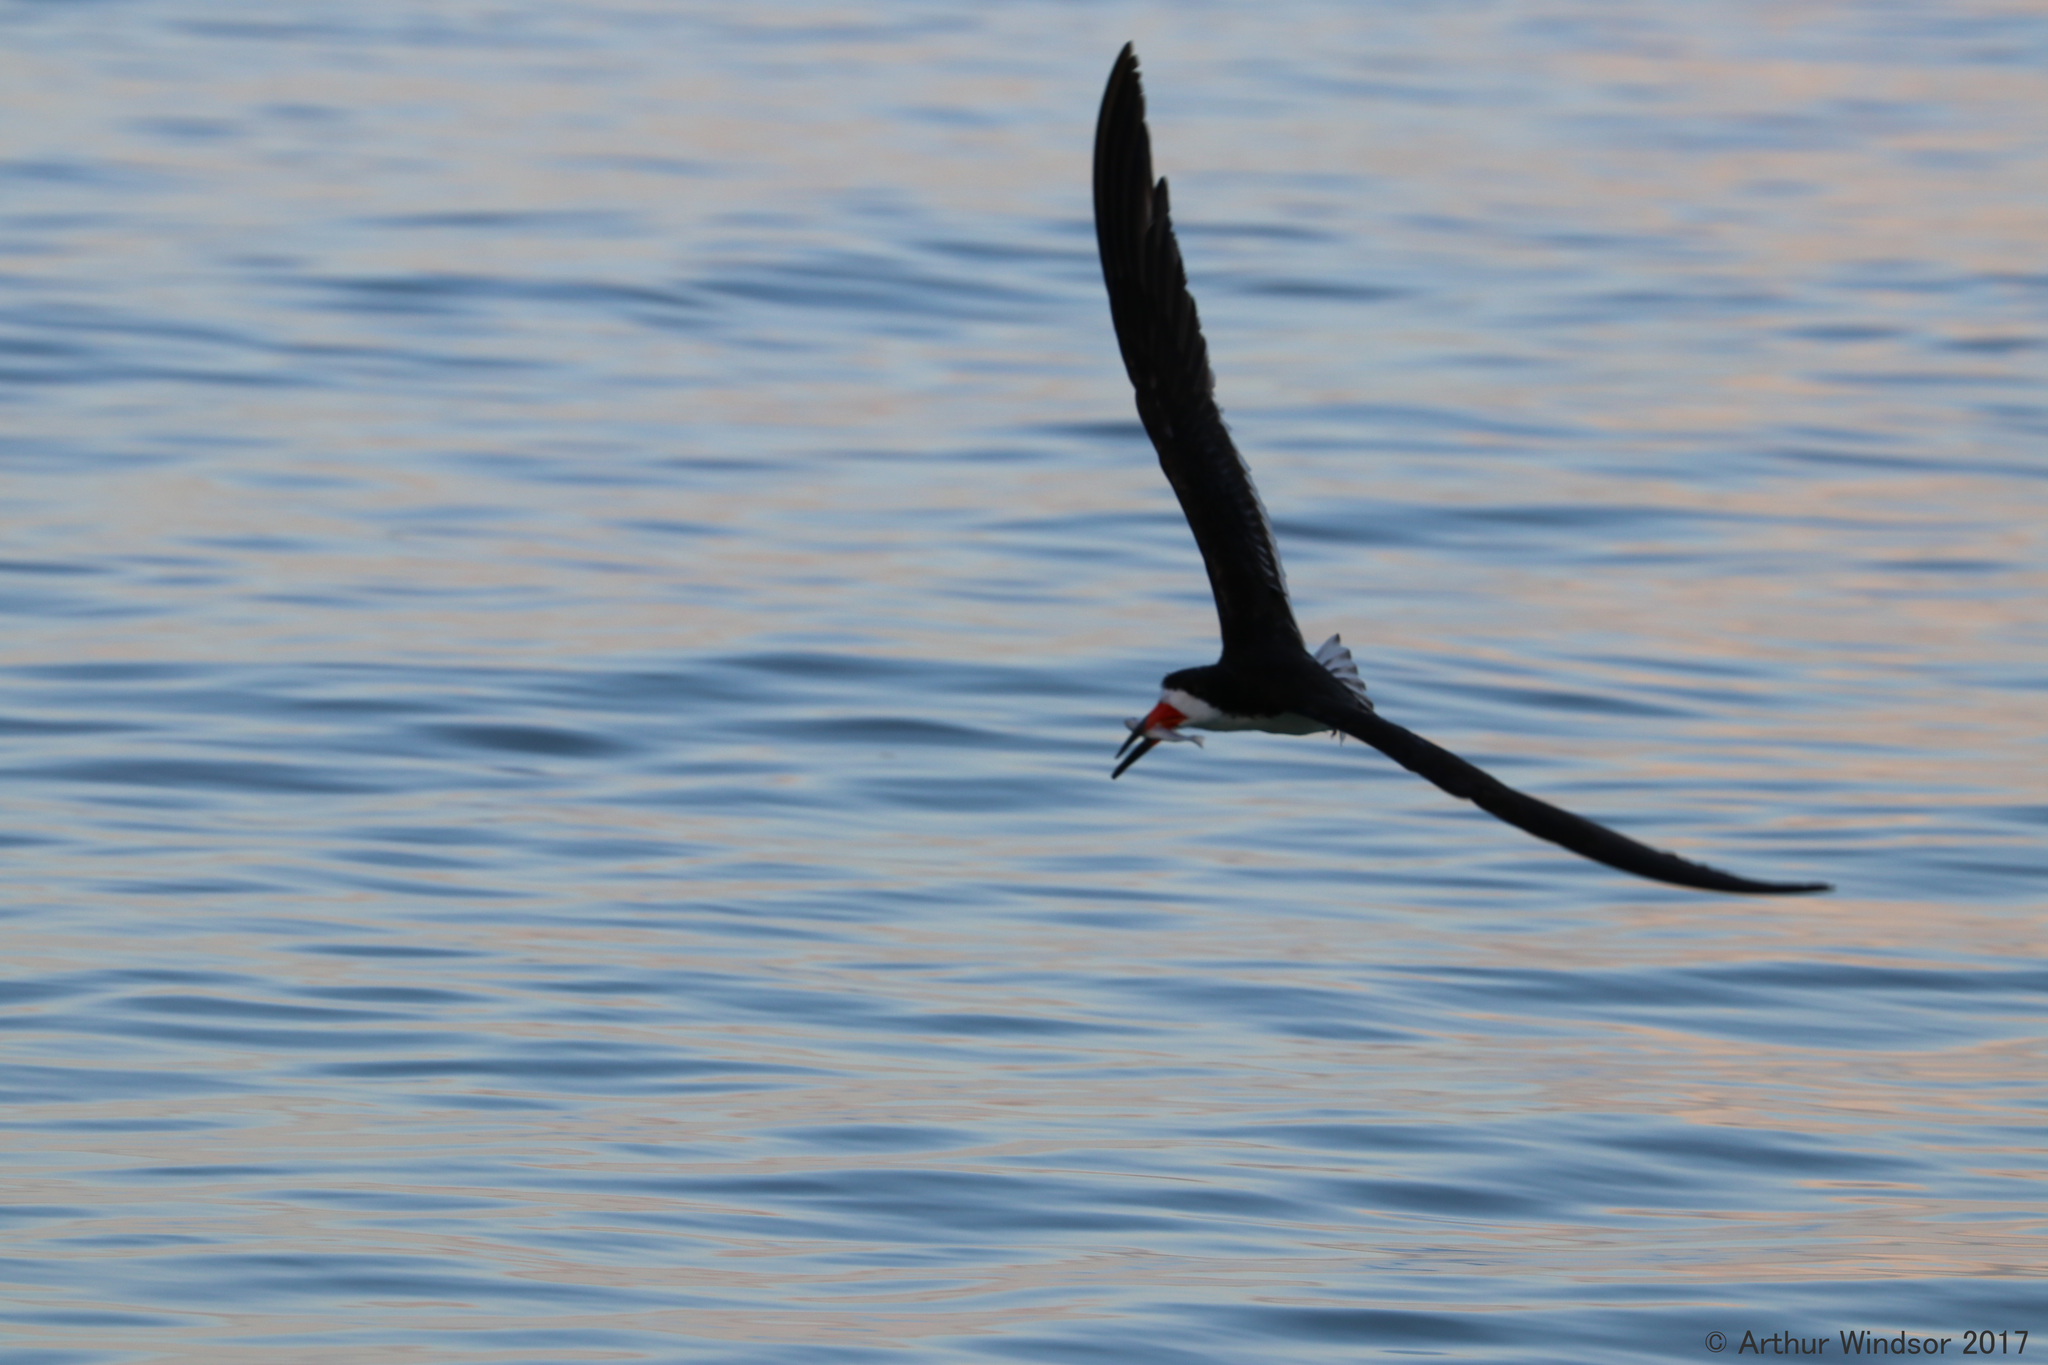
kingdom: Animalia
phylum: Chordata
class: Aves
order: Charadriiformes
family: Laridae
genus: Rynchops
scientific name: Rynchops niger
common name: Black skimmer
